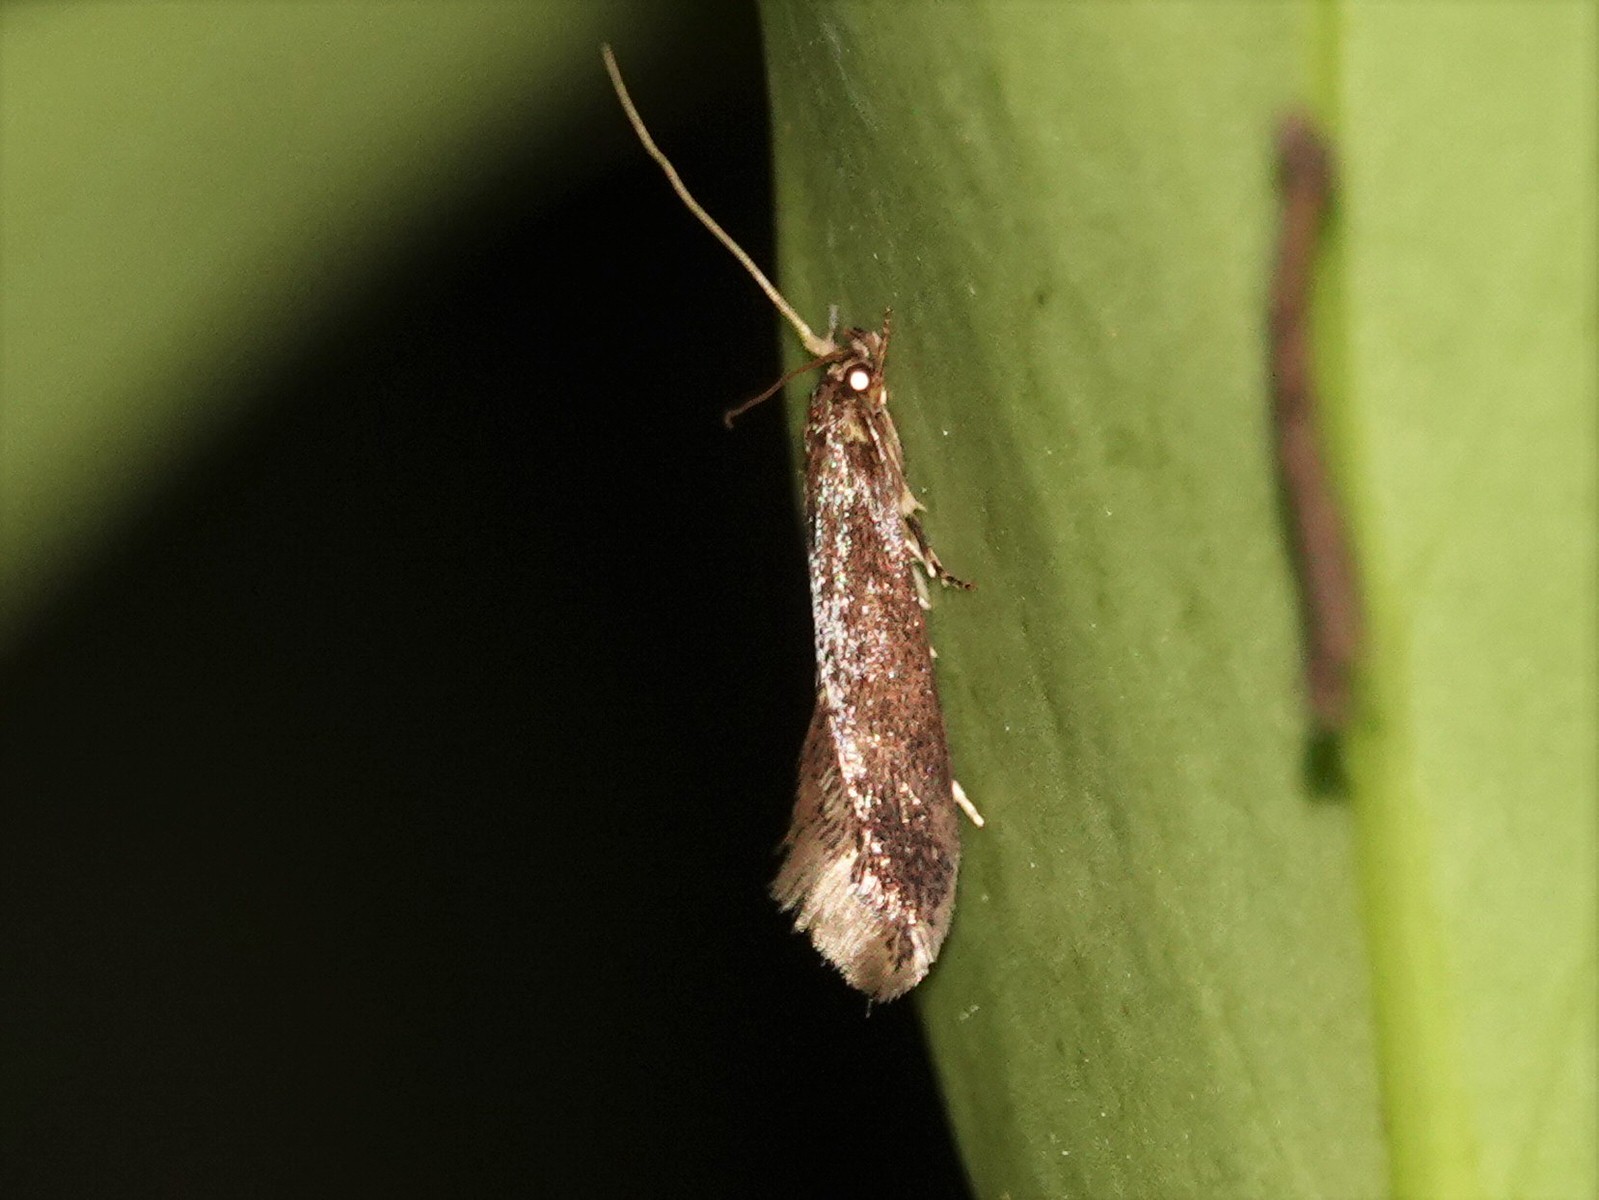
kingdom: Animalia
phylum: Arthropoda
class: Insecta
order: Lepidoptera
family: Tineidae
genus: Opogona
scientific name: Opogona omoscopa
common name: Moth
